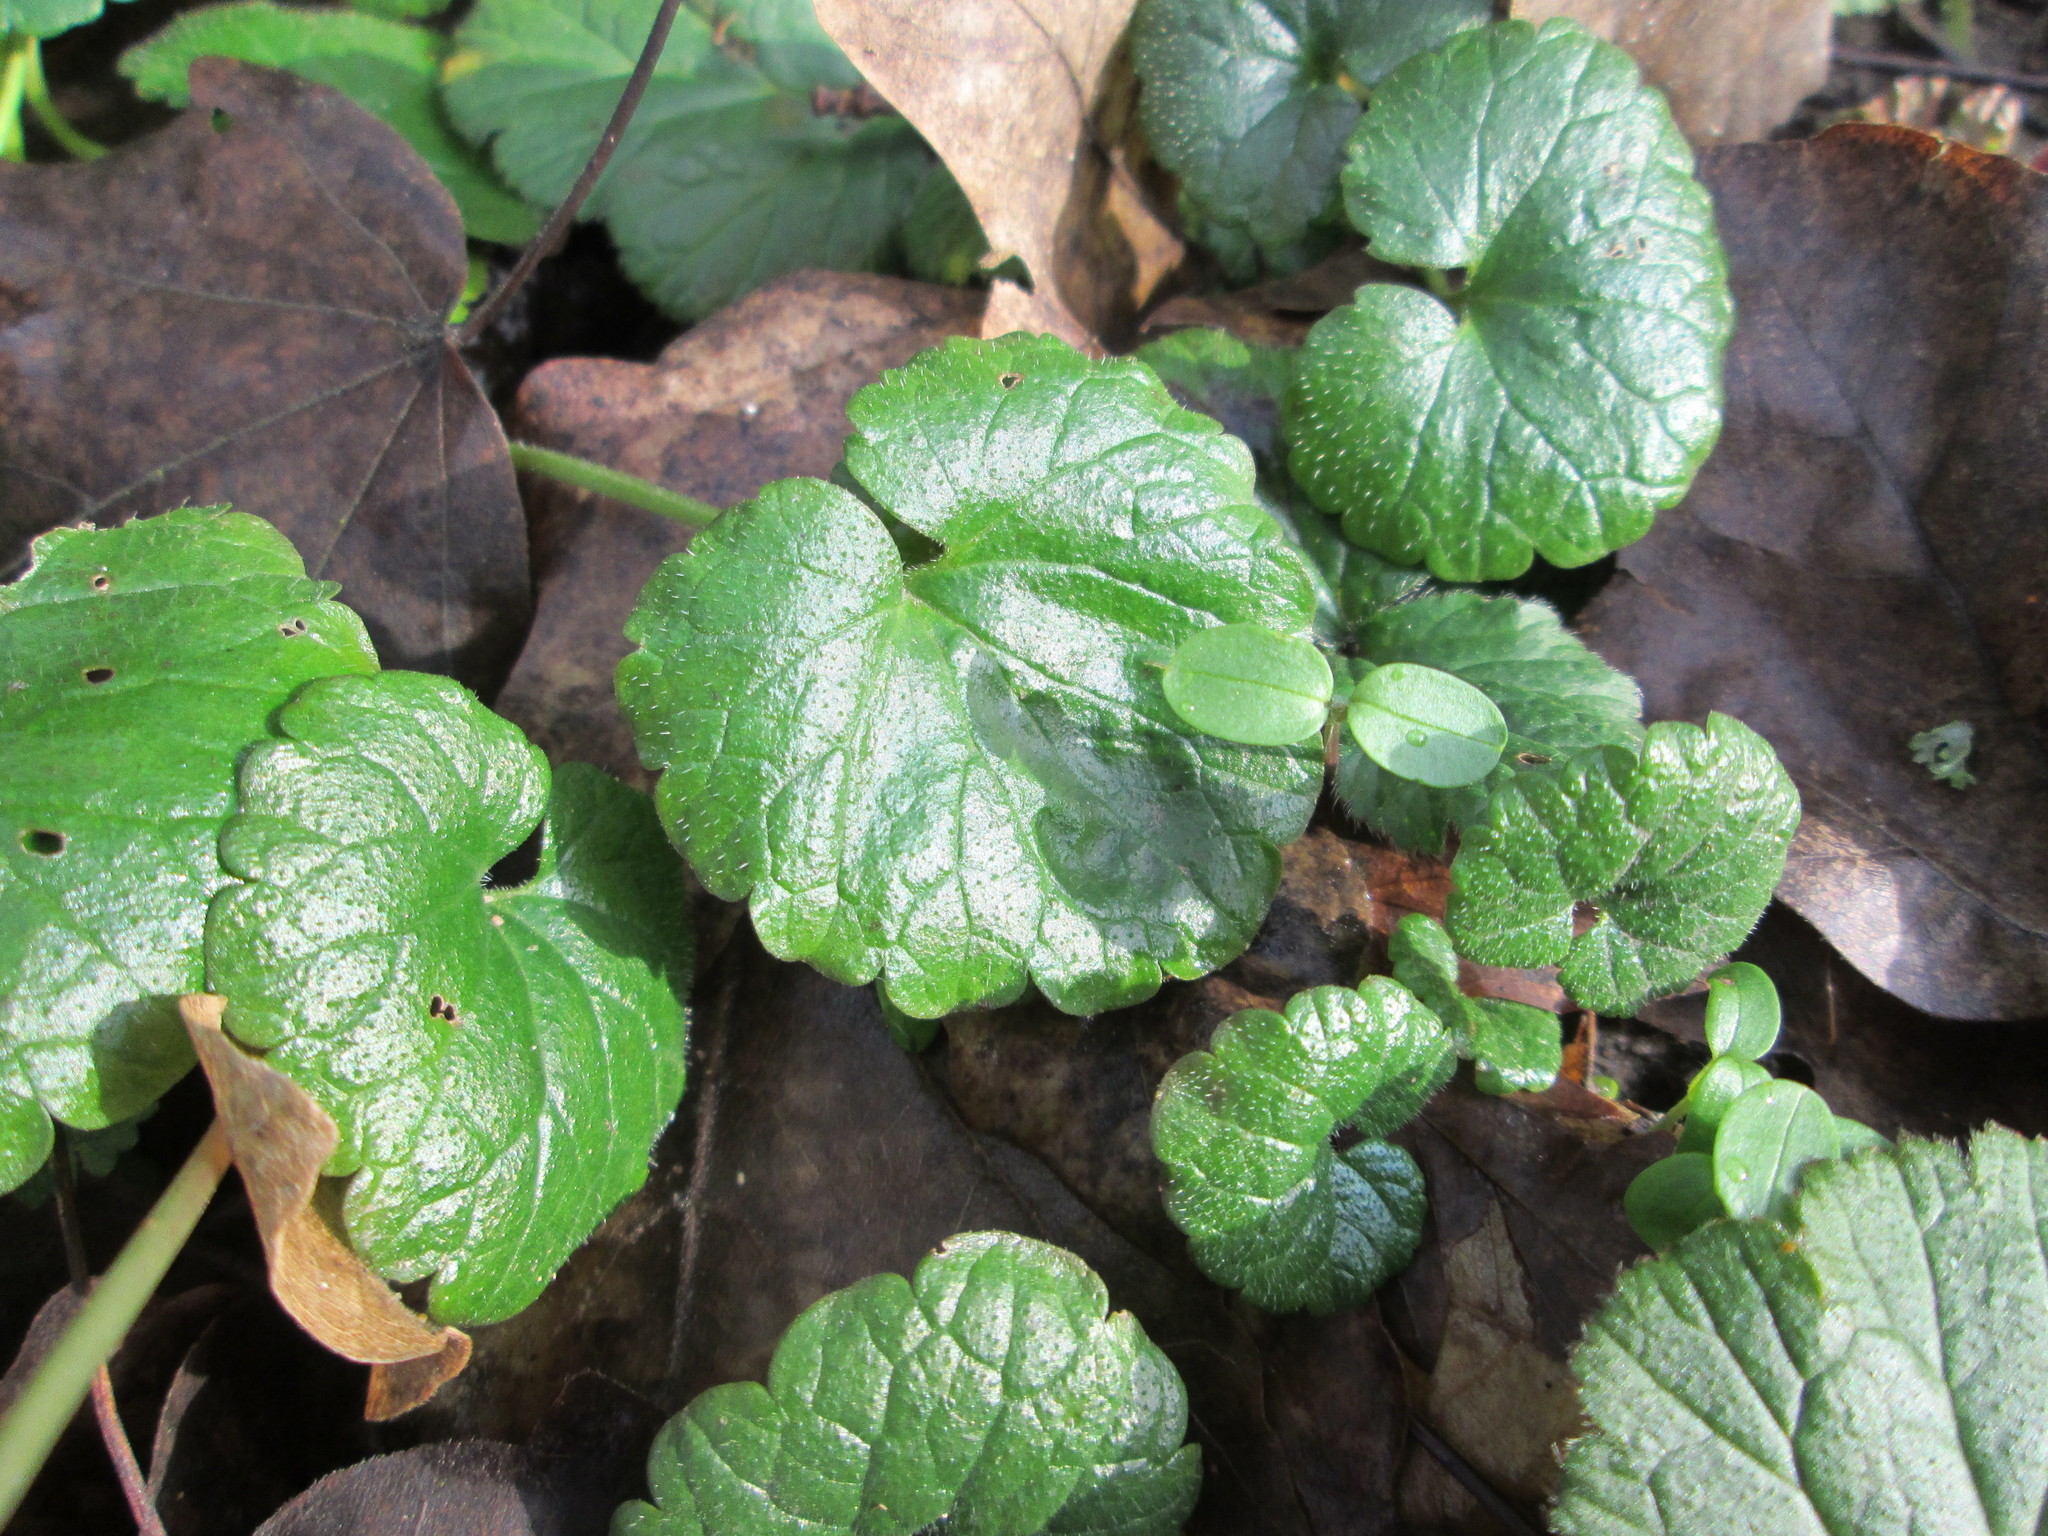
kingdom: Plantae
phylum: Tracheophyta
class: Magnoliopsida
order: Lamiales
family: Lamiaceae
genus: Glechoma
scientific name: Glechoma hederacea
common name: Ground ivy
